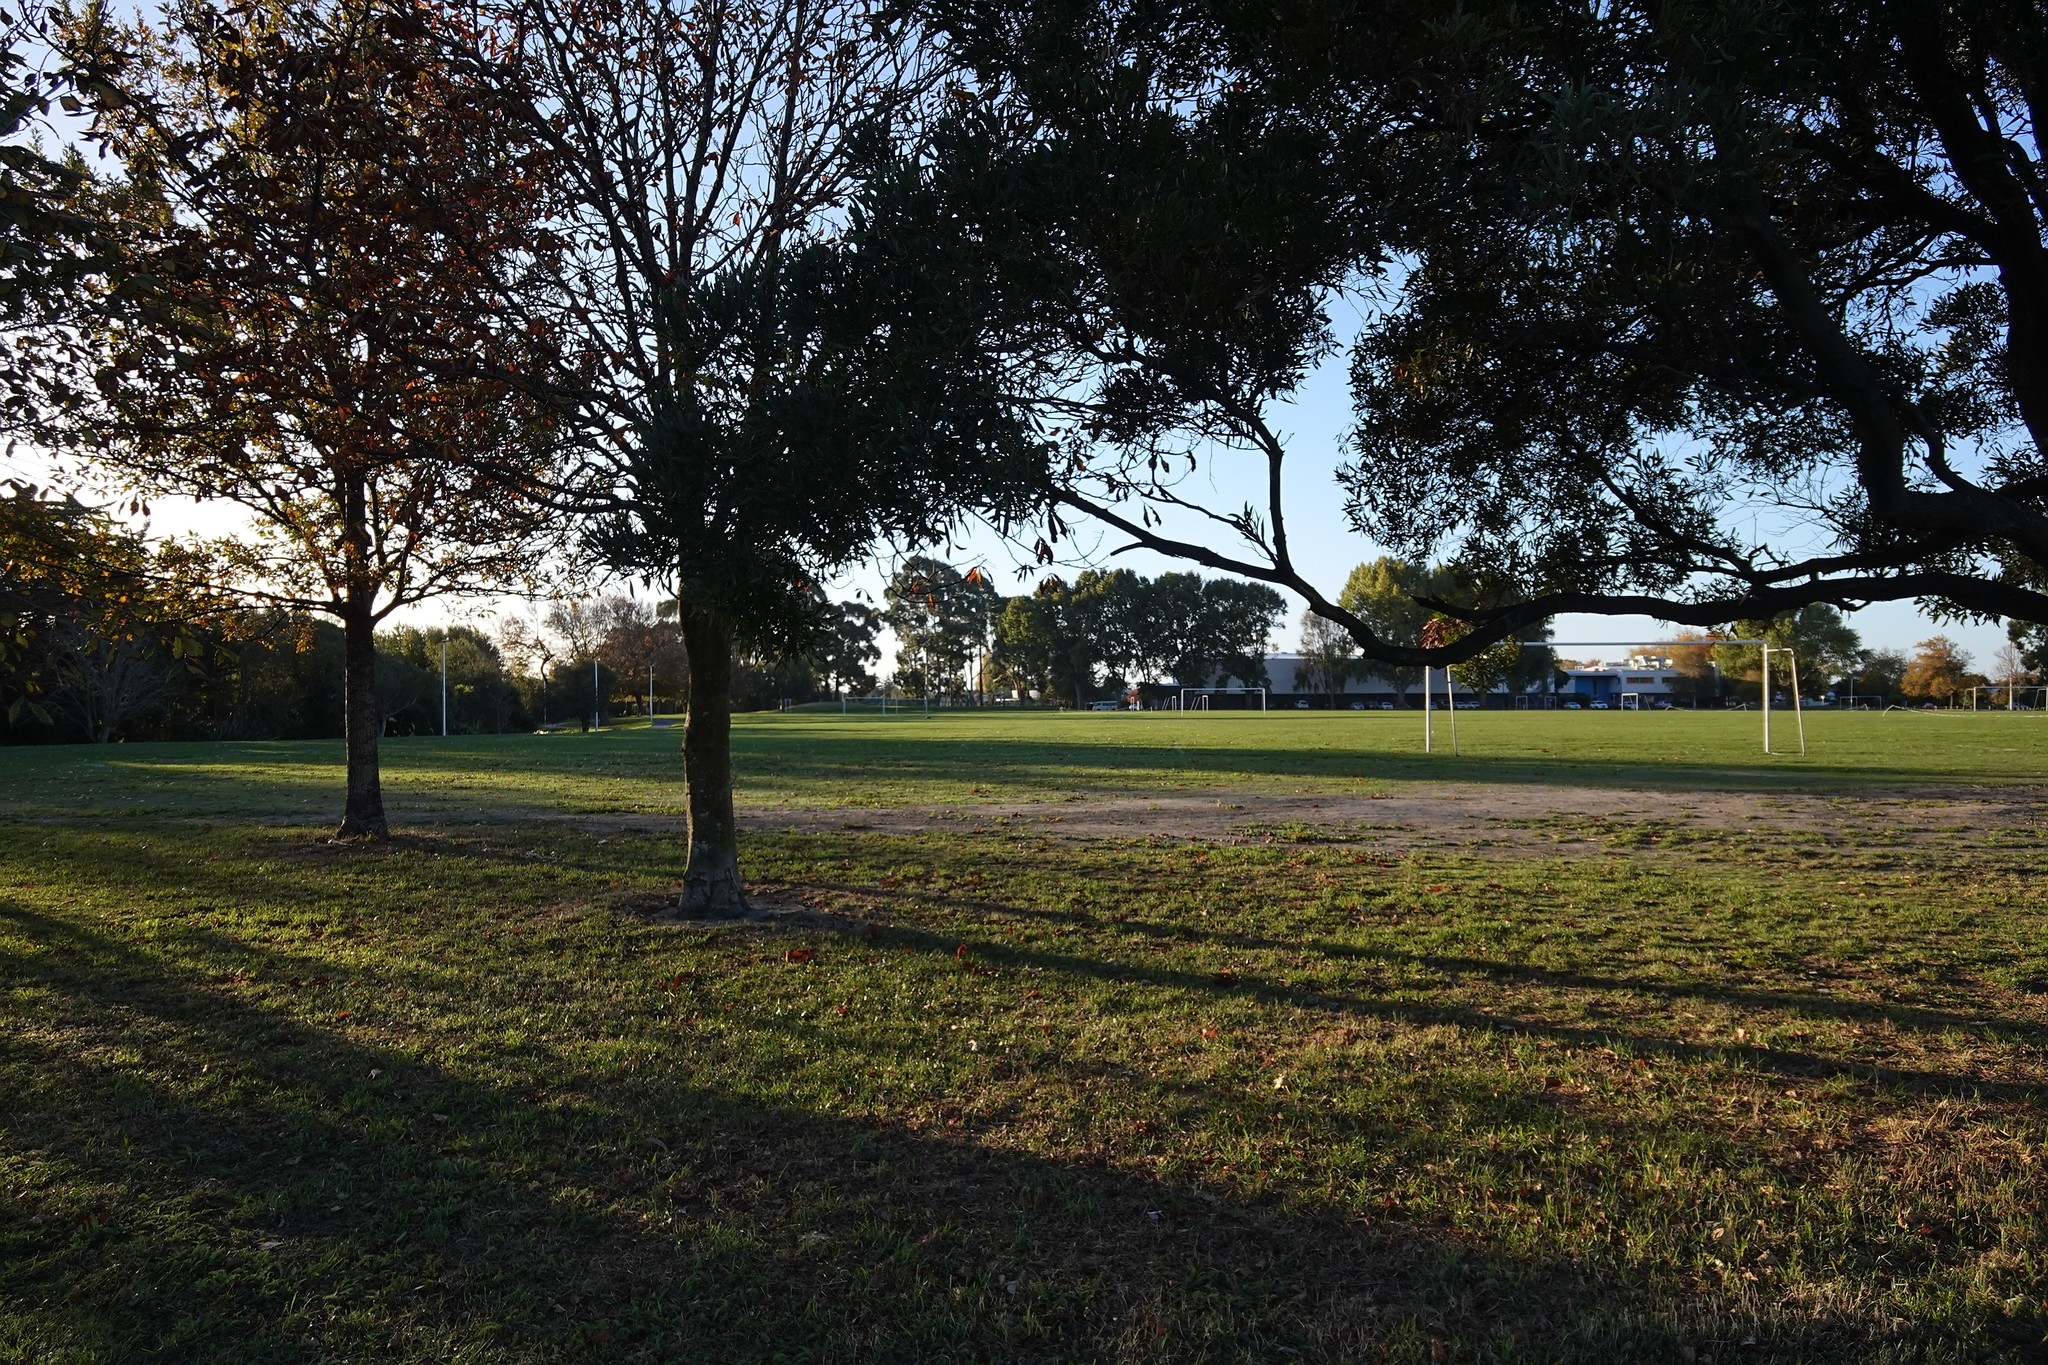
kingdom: Animalia
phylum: Chordata
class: Aves
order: Anseriformes
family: Anatidae
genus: Tadorna
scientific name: Tadorna variegata
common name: Paradise shelduck
